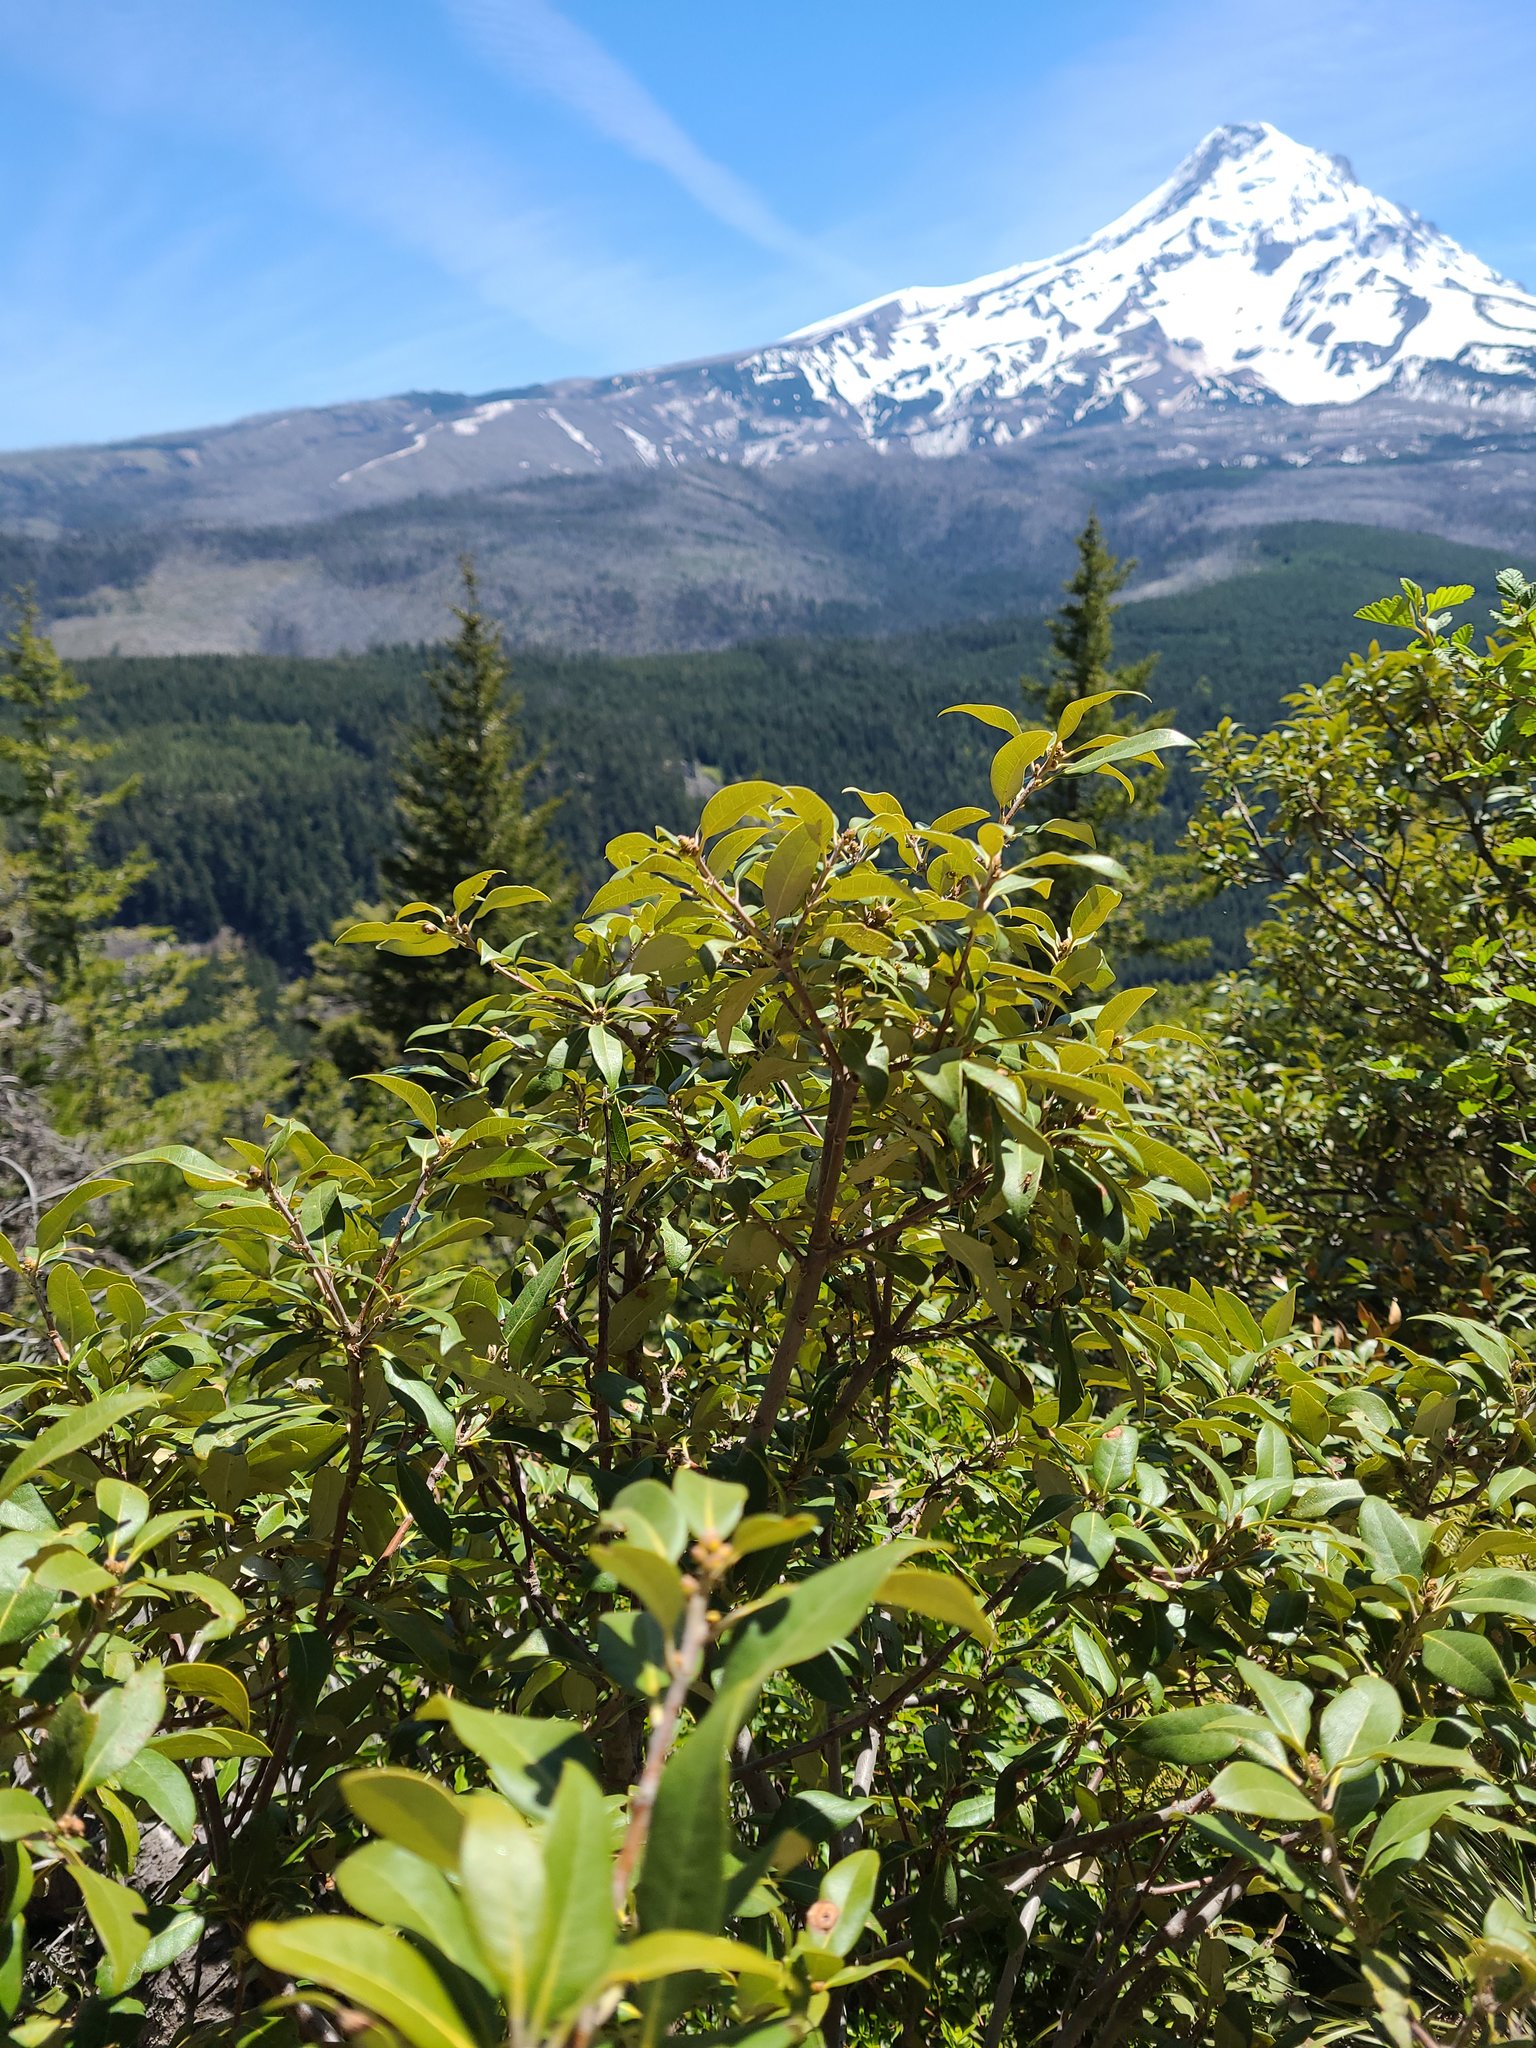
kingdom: Plantae
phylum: Tracheophyta
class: Magnoliopsida
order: Fagales
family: Fagaceae
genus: Chrysolepis
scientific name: Chrysolepis chrysophylla
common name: Giant chinquapin
